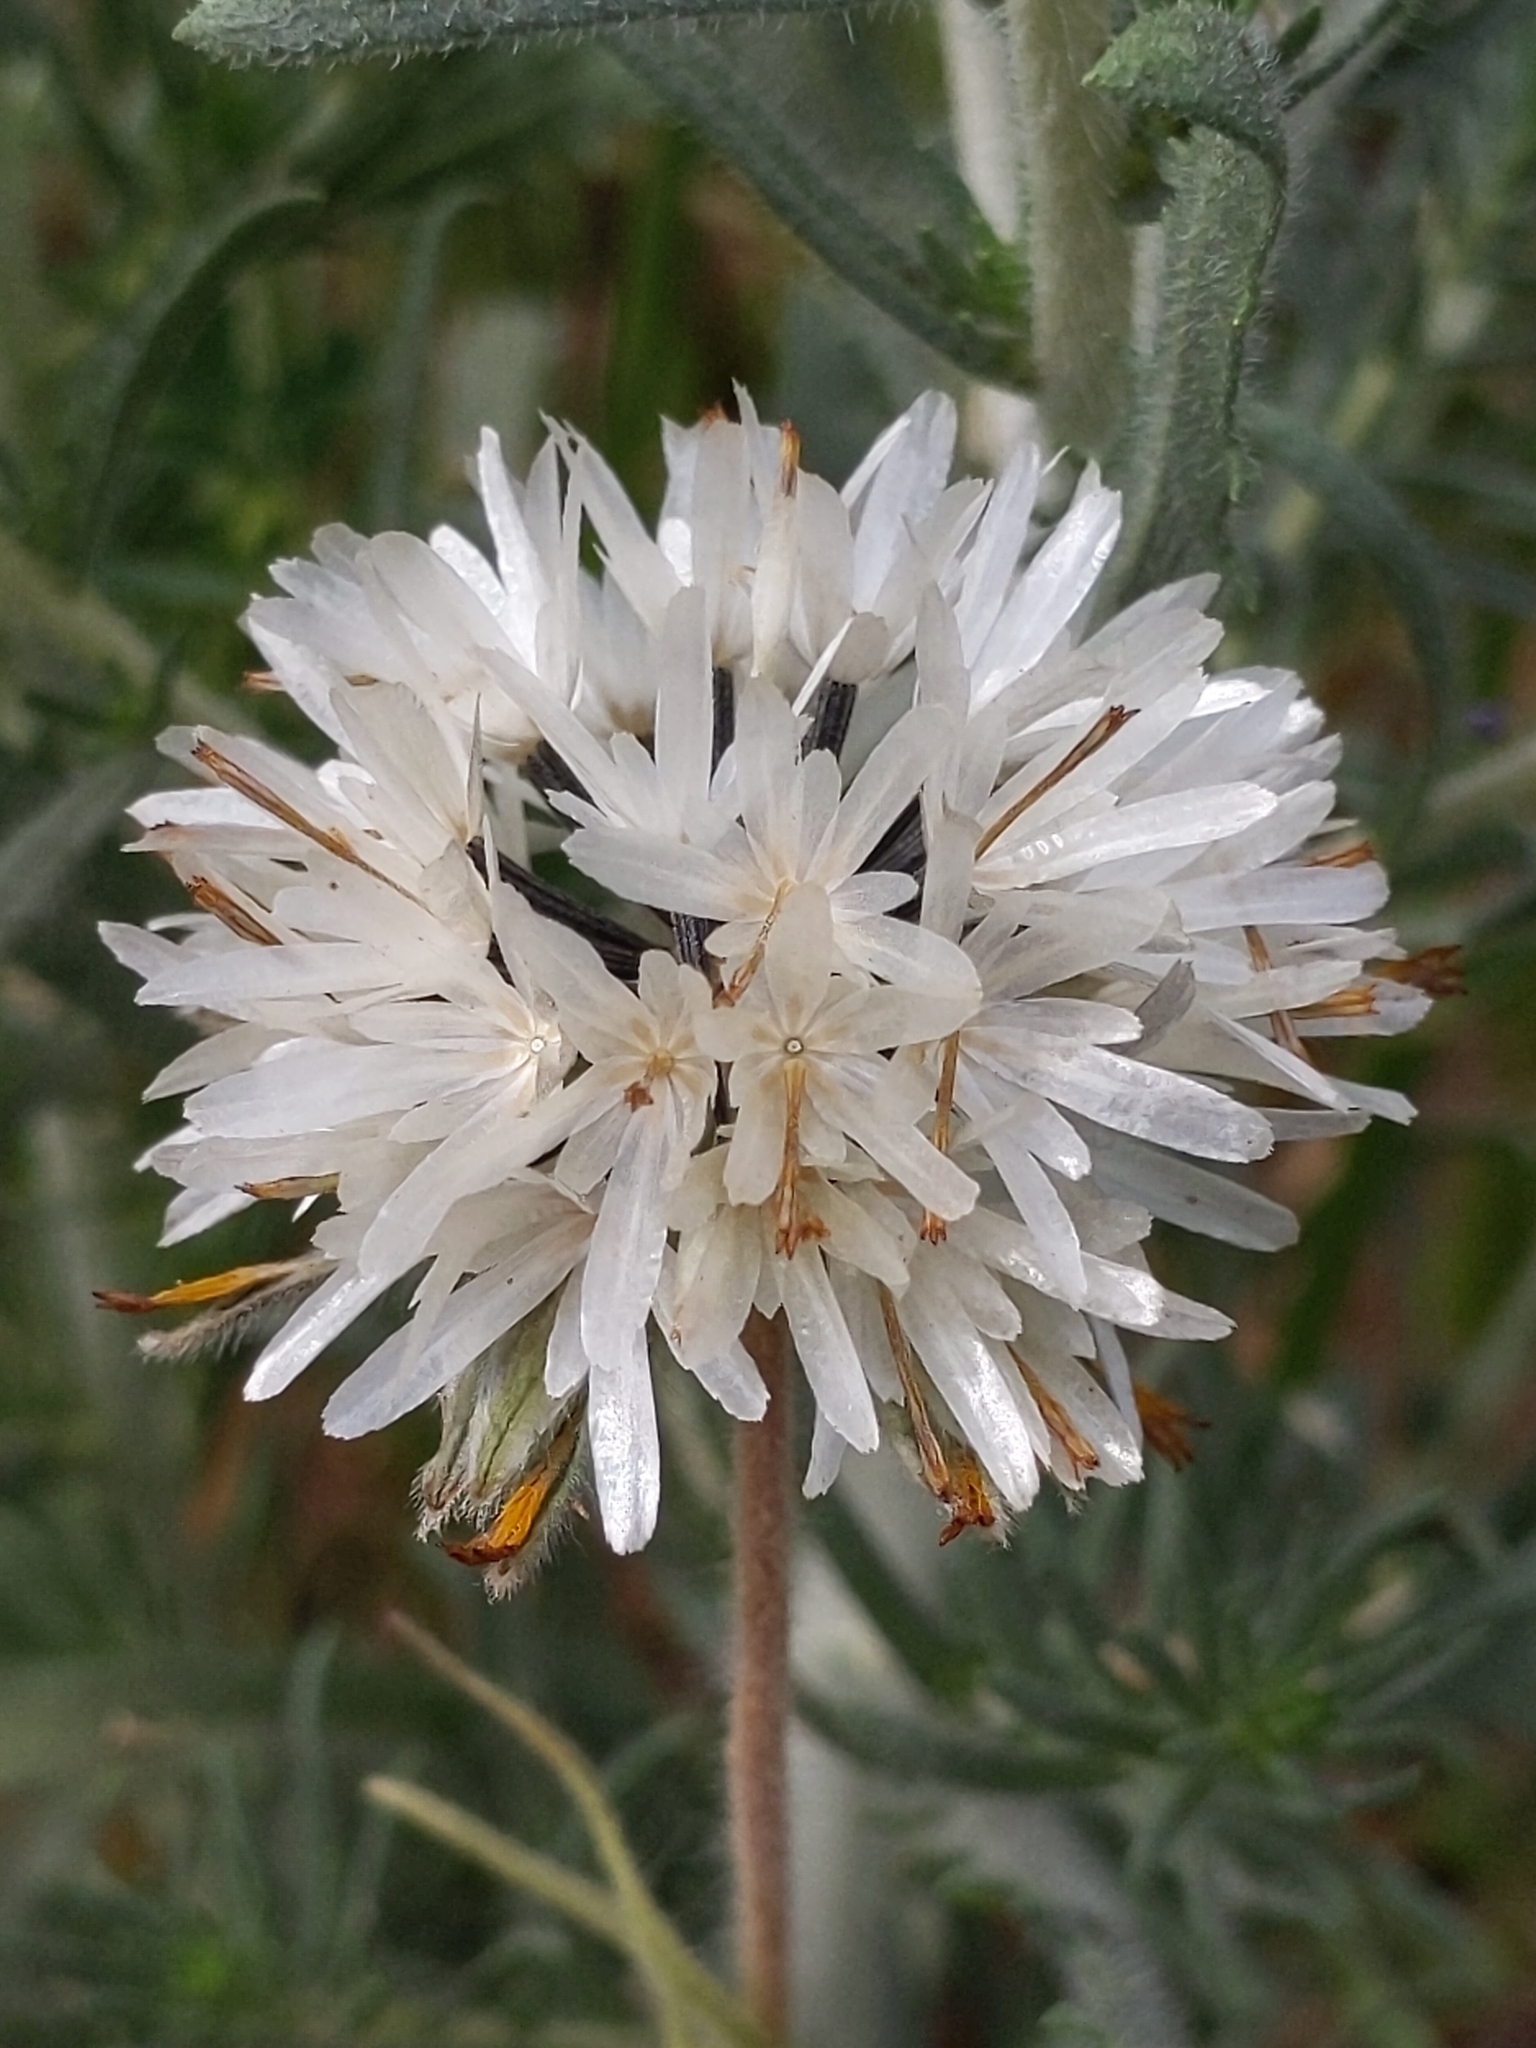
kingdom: Plantae
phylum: Tracheophyta
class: Magnoliopsida
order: Asterales
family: Asteraceae
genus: Achyrachaena
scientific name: Achyrachaena mollis
